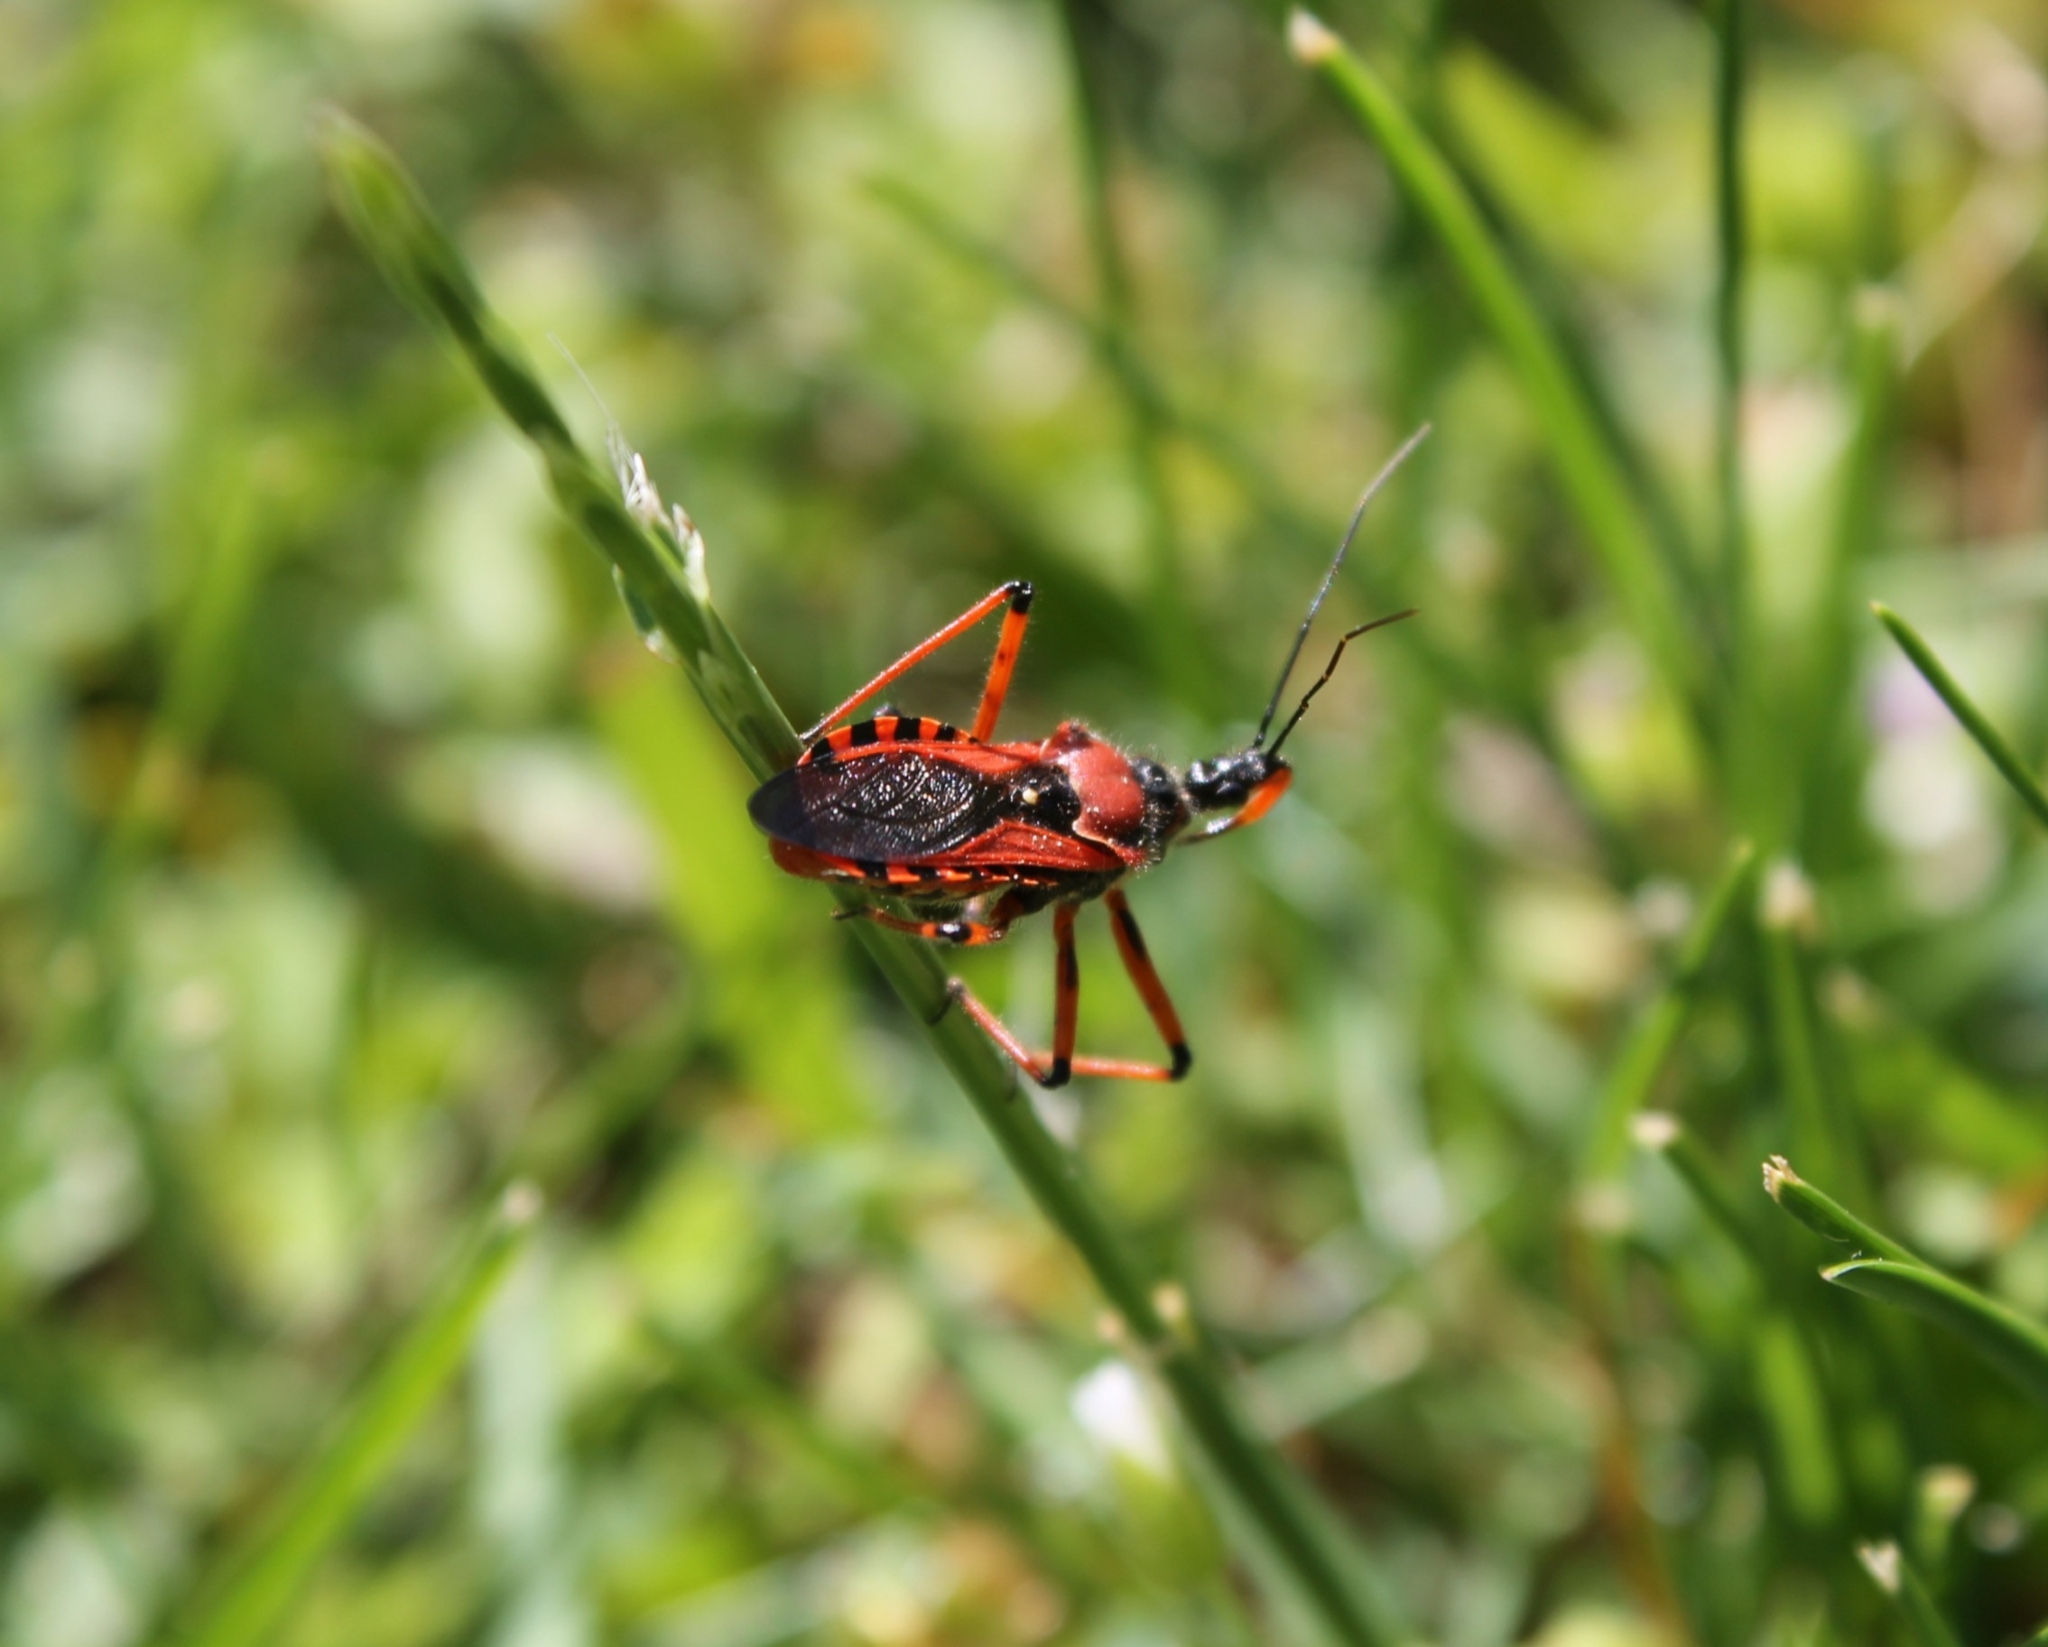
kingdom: Animalia
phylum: Arthropoda
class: Insecta
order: Hemiptera
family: Reduviidae
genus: Rhynocoris
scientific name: Rhynocoris iracundus
